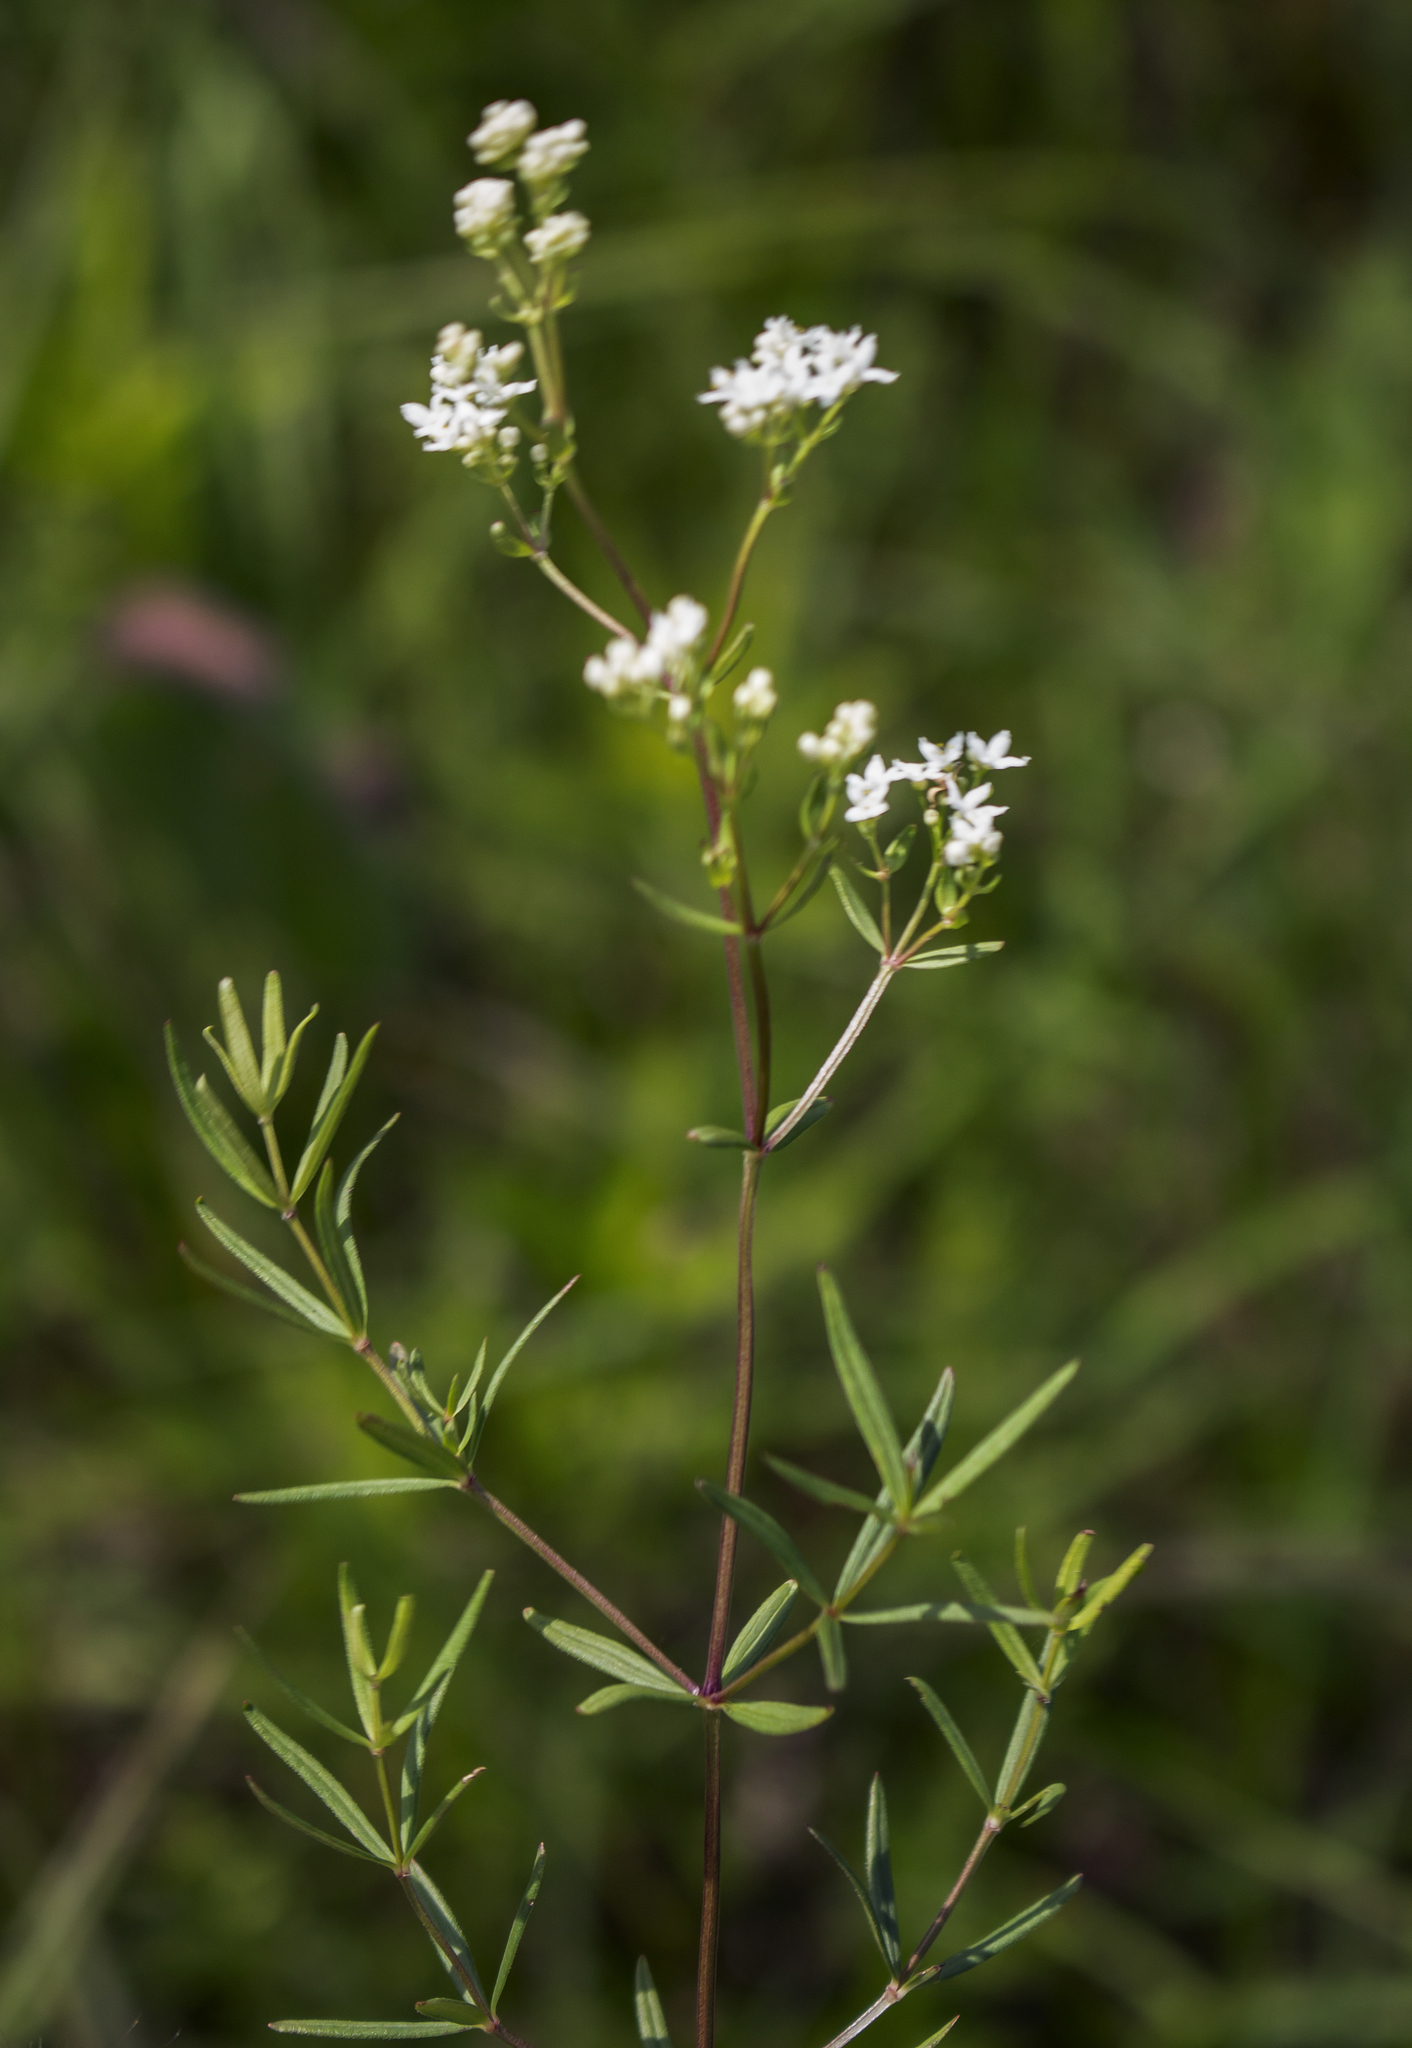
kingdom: Plantae
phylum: Tracheophyta
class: Magnoliopsida
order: Gentianales
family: Rubiaceae
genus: Galium
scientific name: Galium boreale
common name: Northern bedstraw
